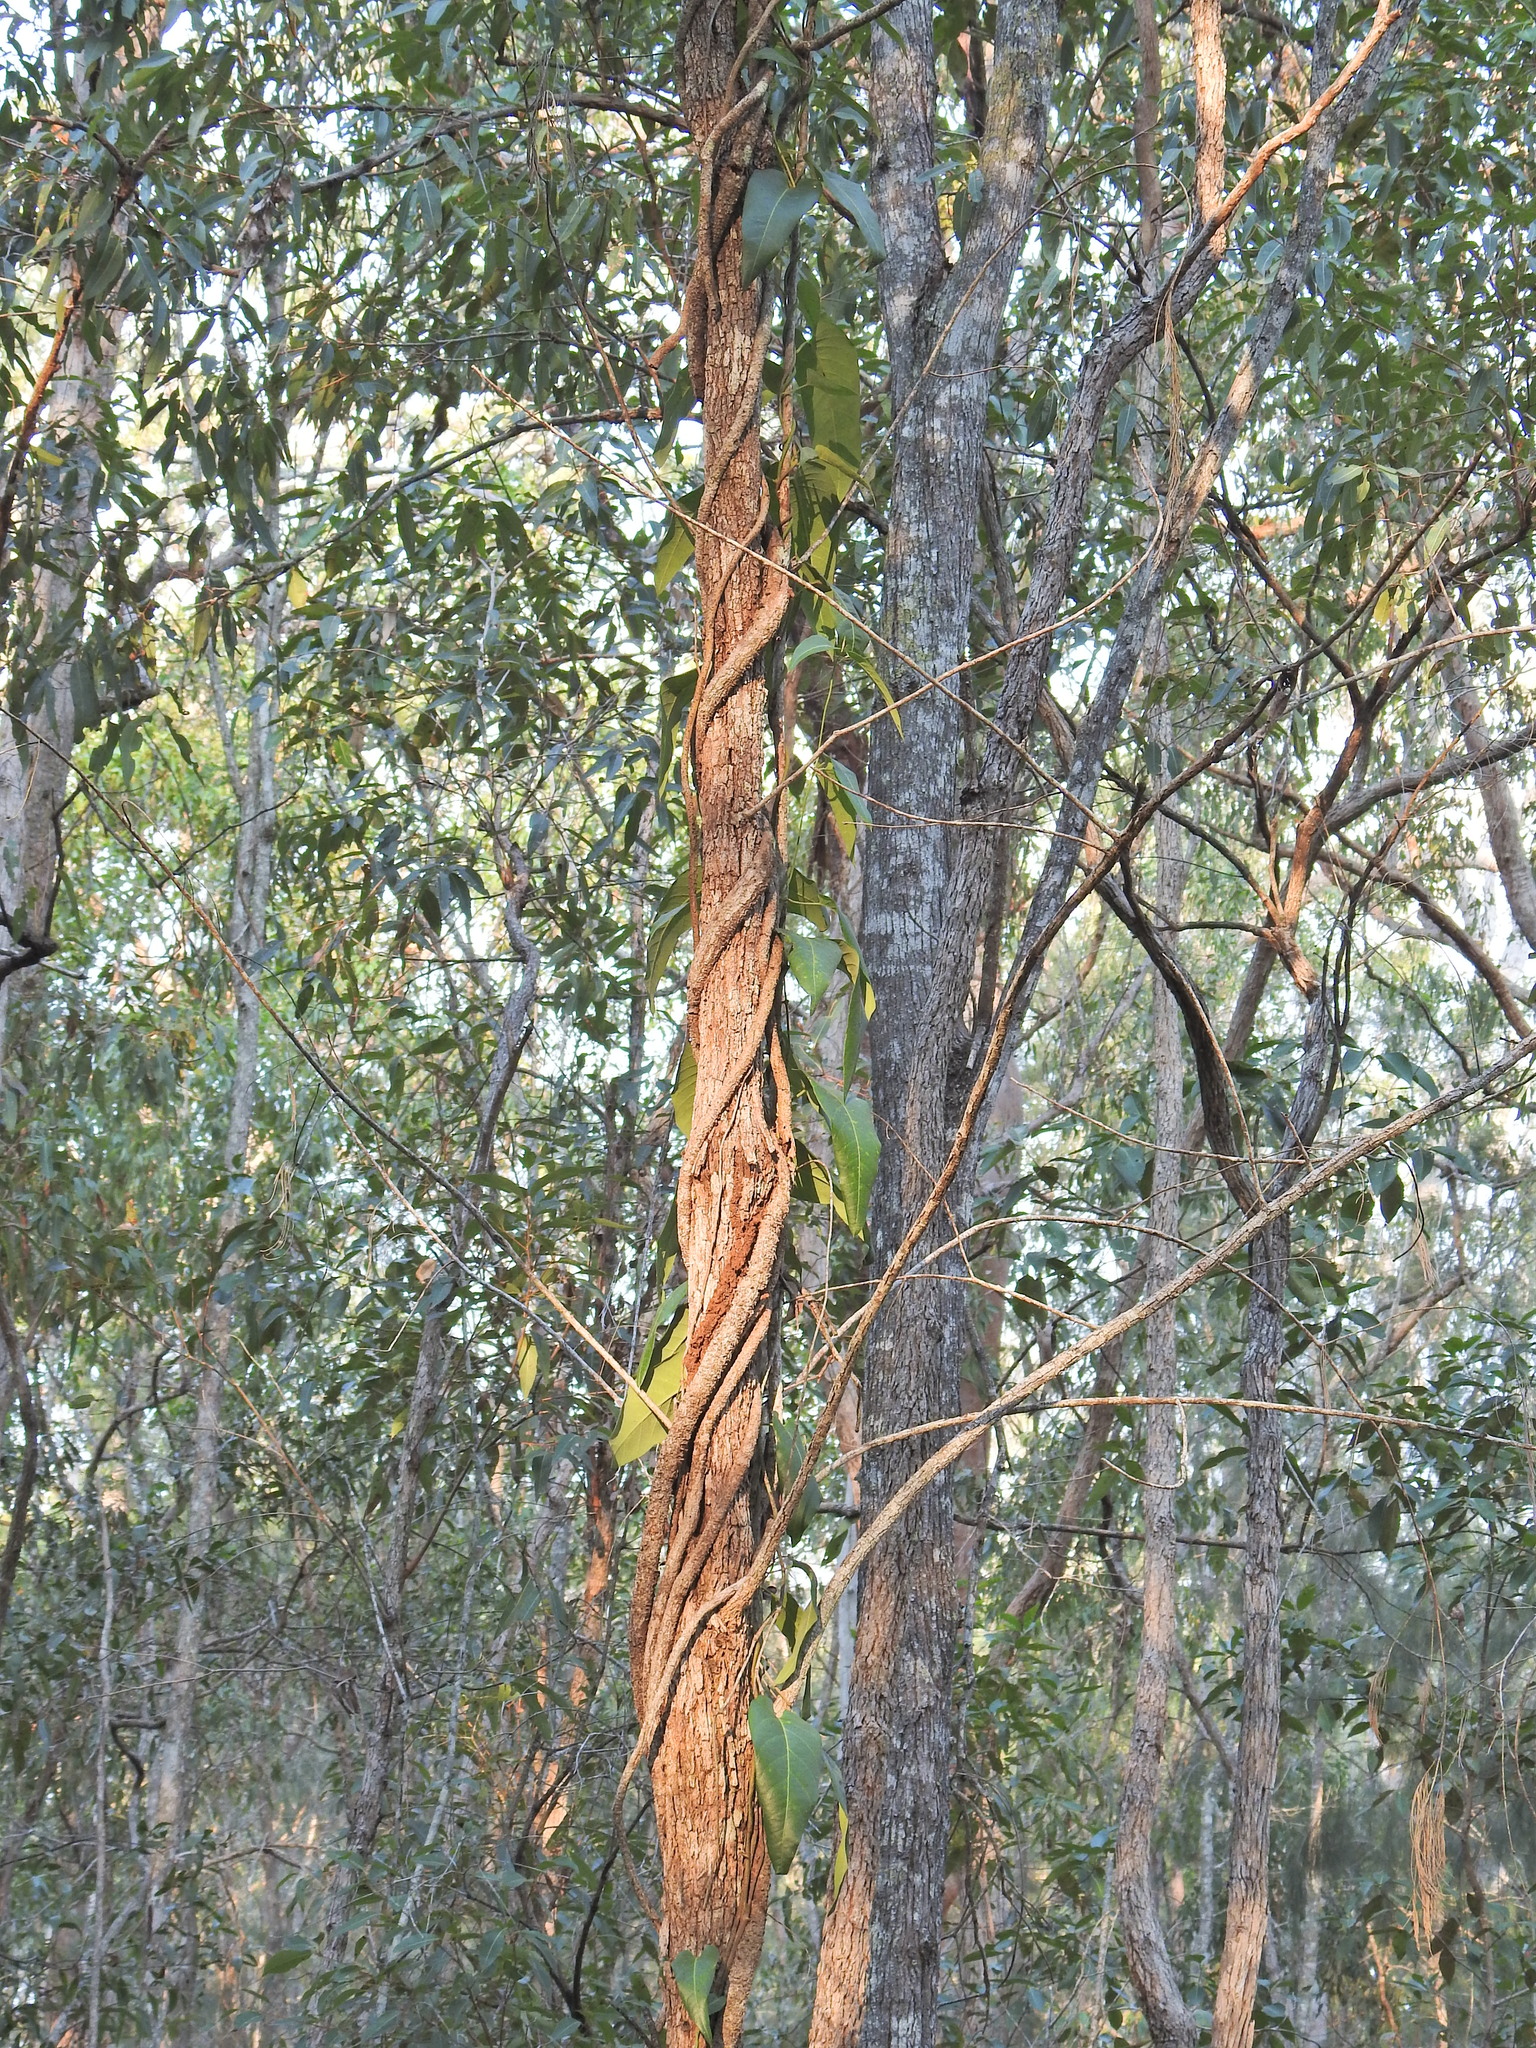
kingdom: Plantae
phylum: Tracheophyta
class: Magnoliopsida
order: Gentianales
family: Apocynaceae
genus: Parsonsia
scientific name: Parsonsia brisbanensis
